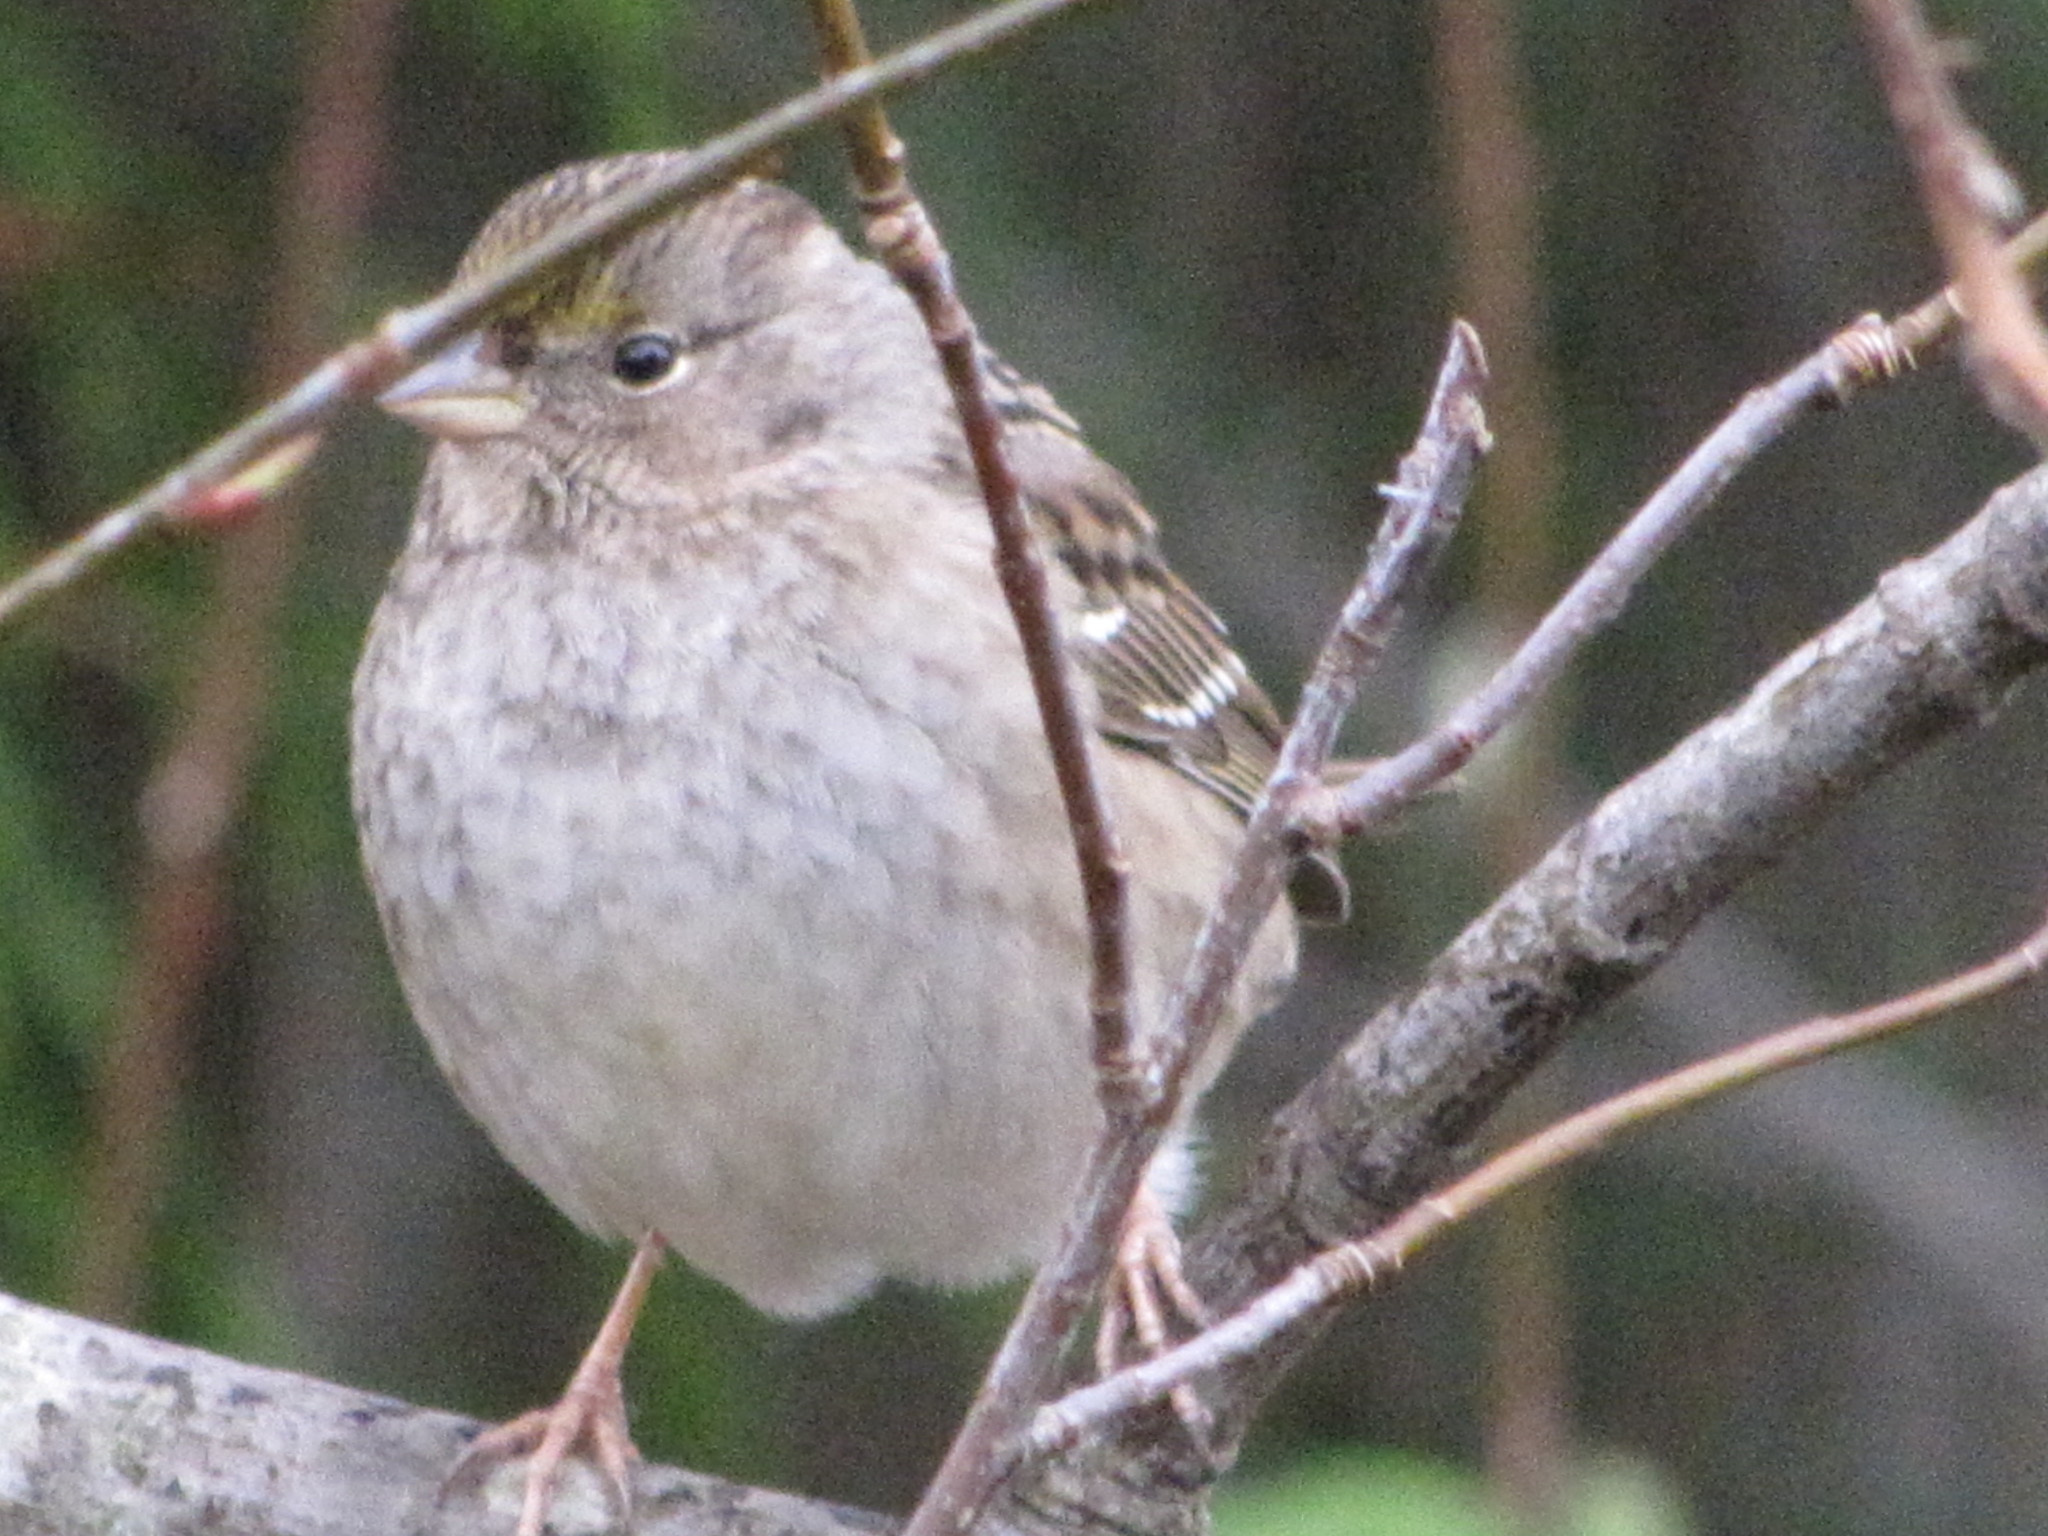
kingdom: Animalia
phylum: Chordata
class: Aves
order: Passeriformes
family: Passerellidae
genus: Zonotrichia
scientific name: Zonotrichia atricapilla
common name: Golden-crowned sparrow
